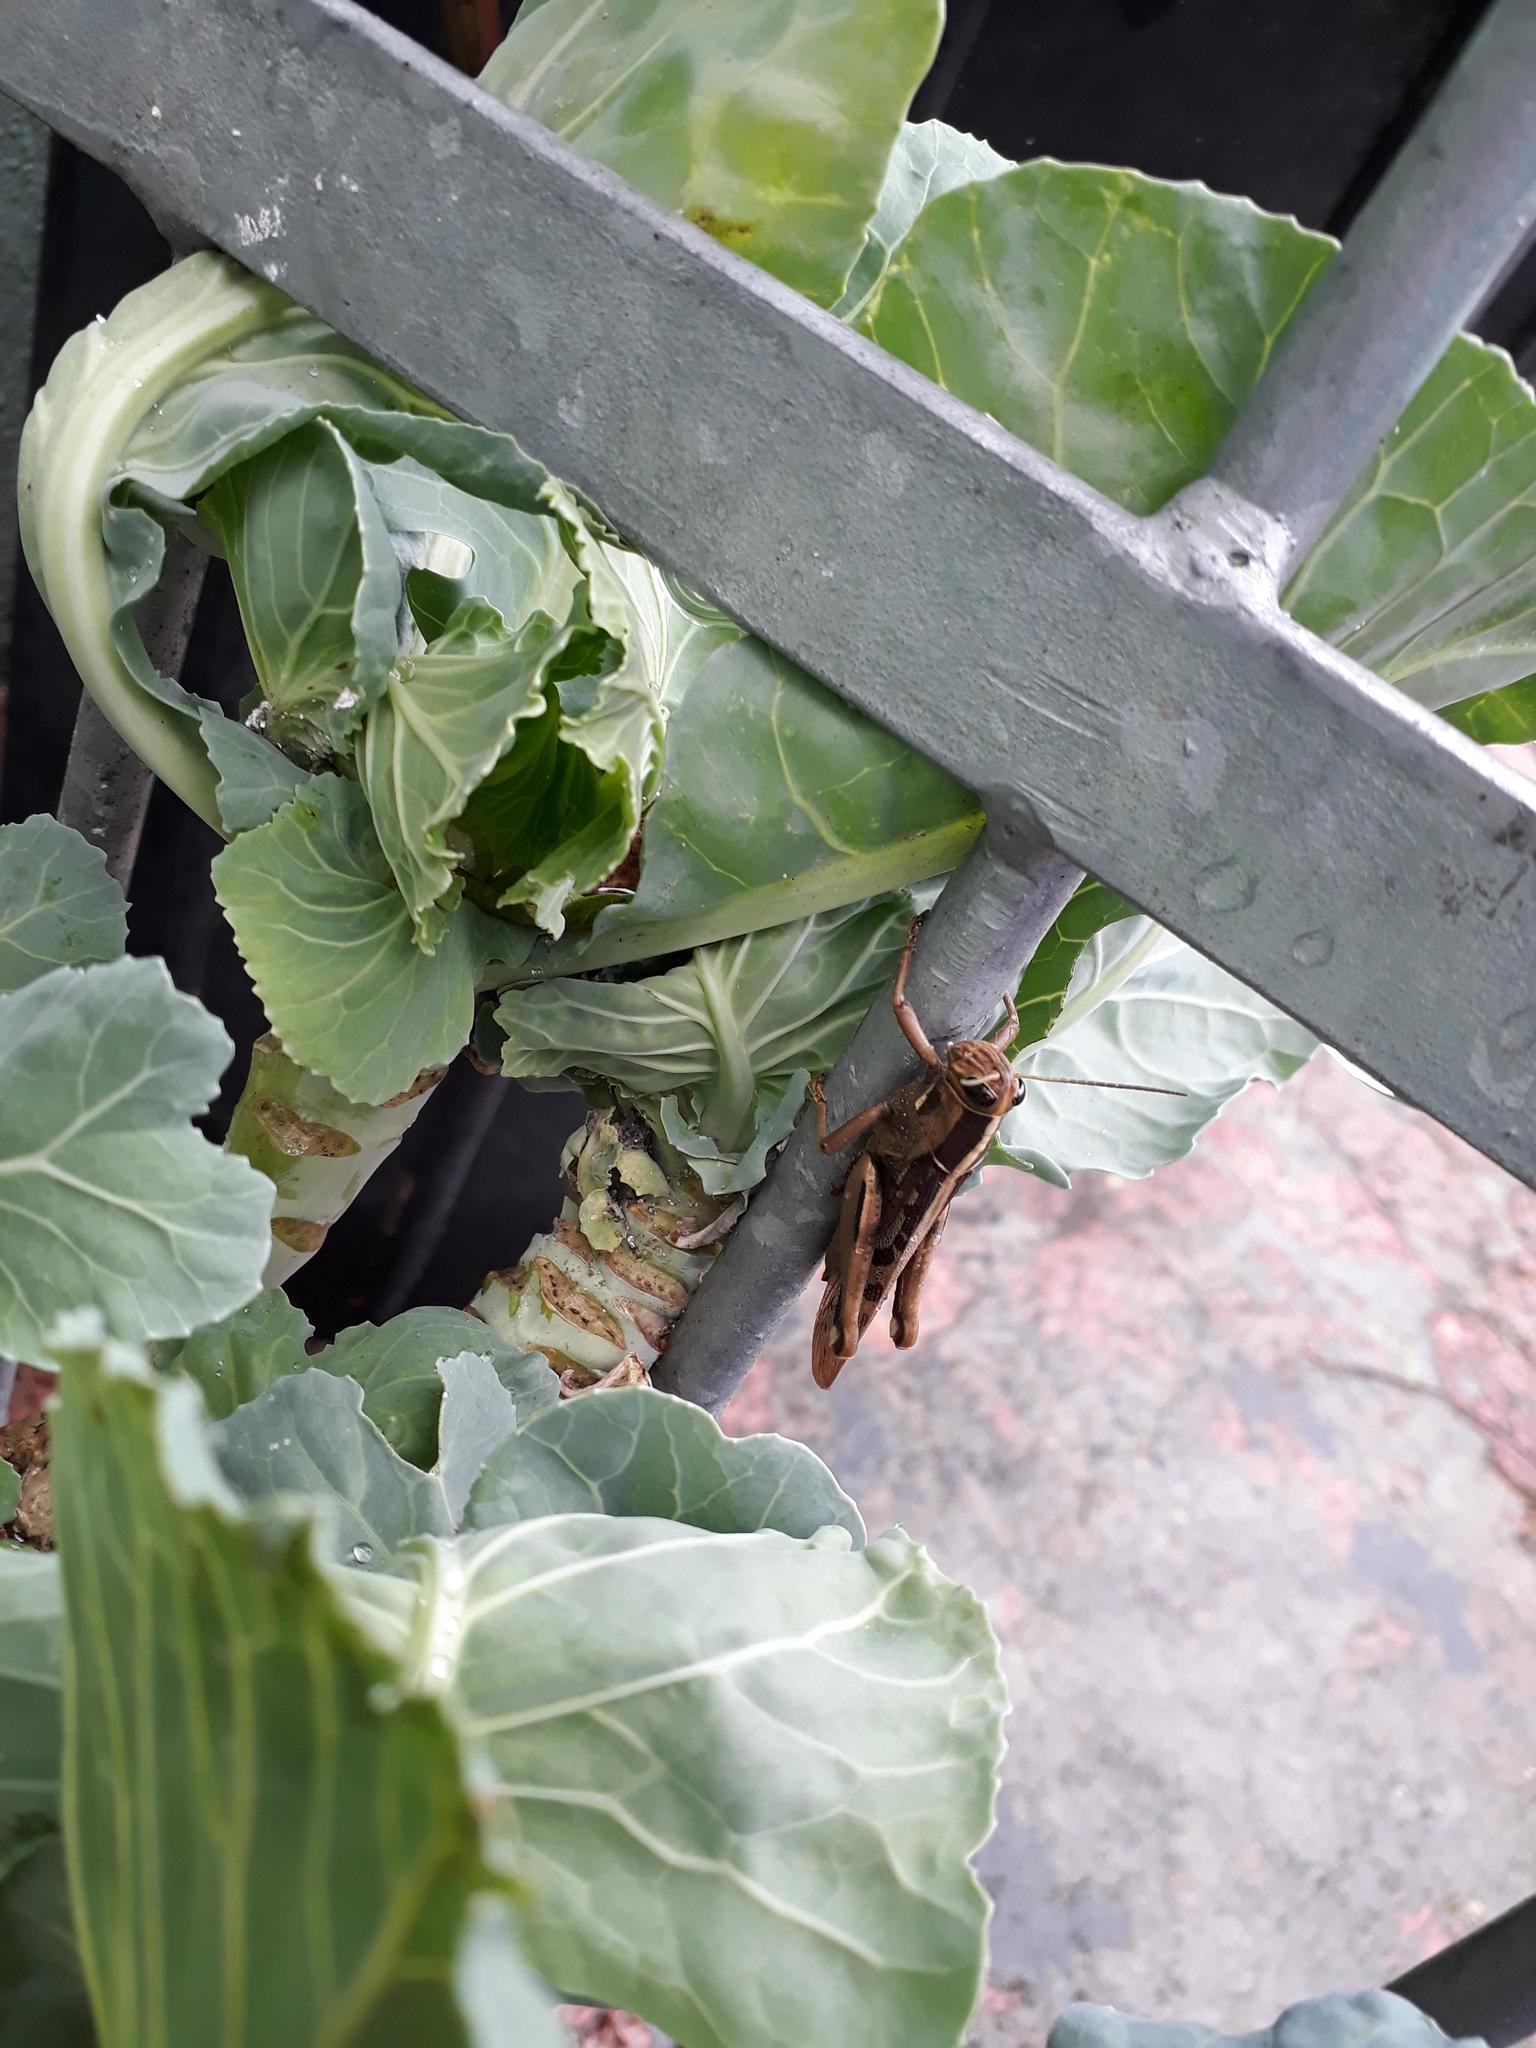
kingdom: Animalia
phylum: Arthropoda
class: Insecta
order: Orthoptera
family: Acrididae
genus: Acanthacris
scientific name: Acanthacris ruficornis
